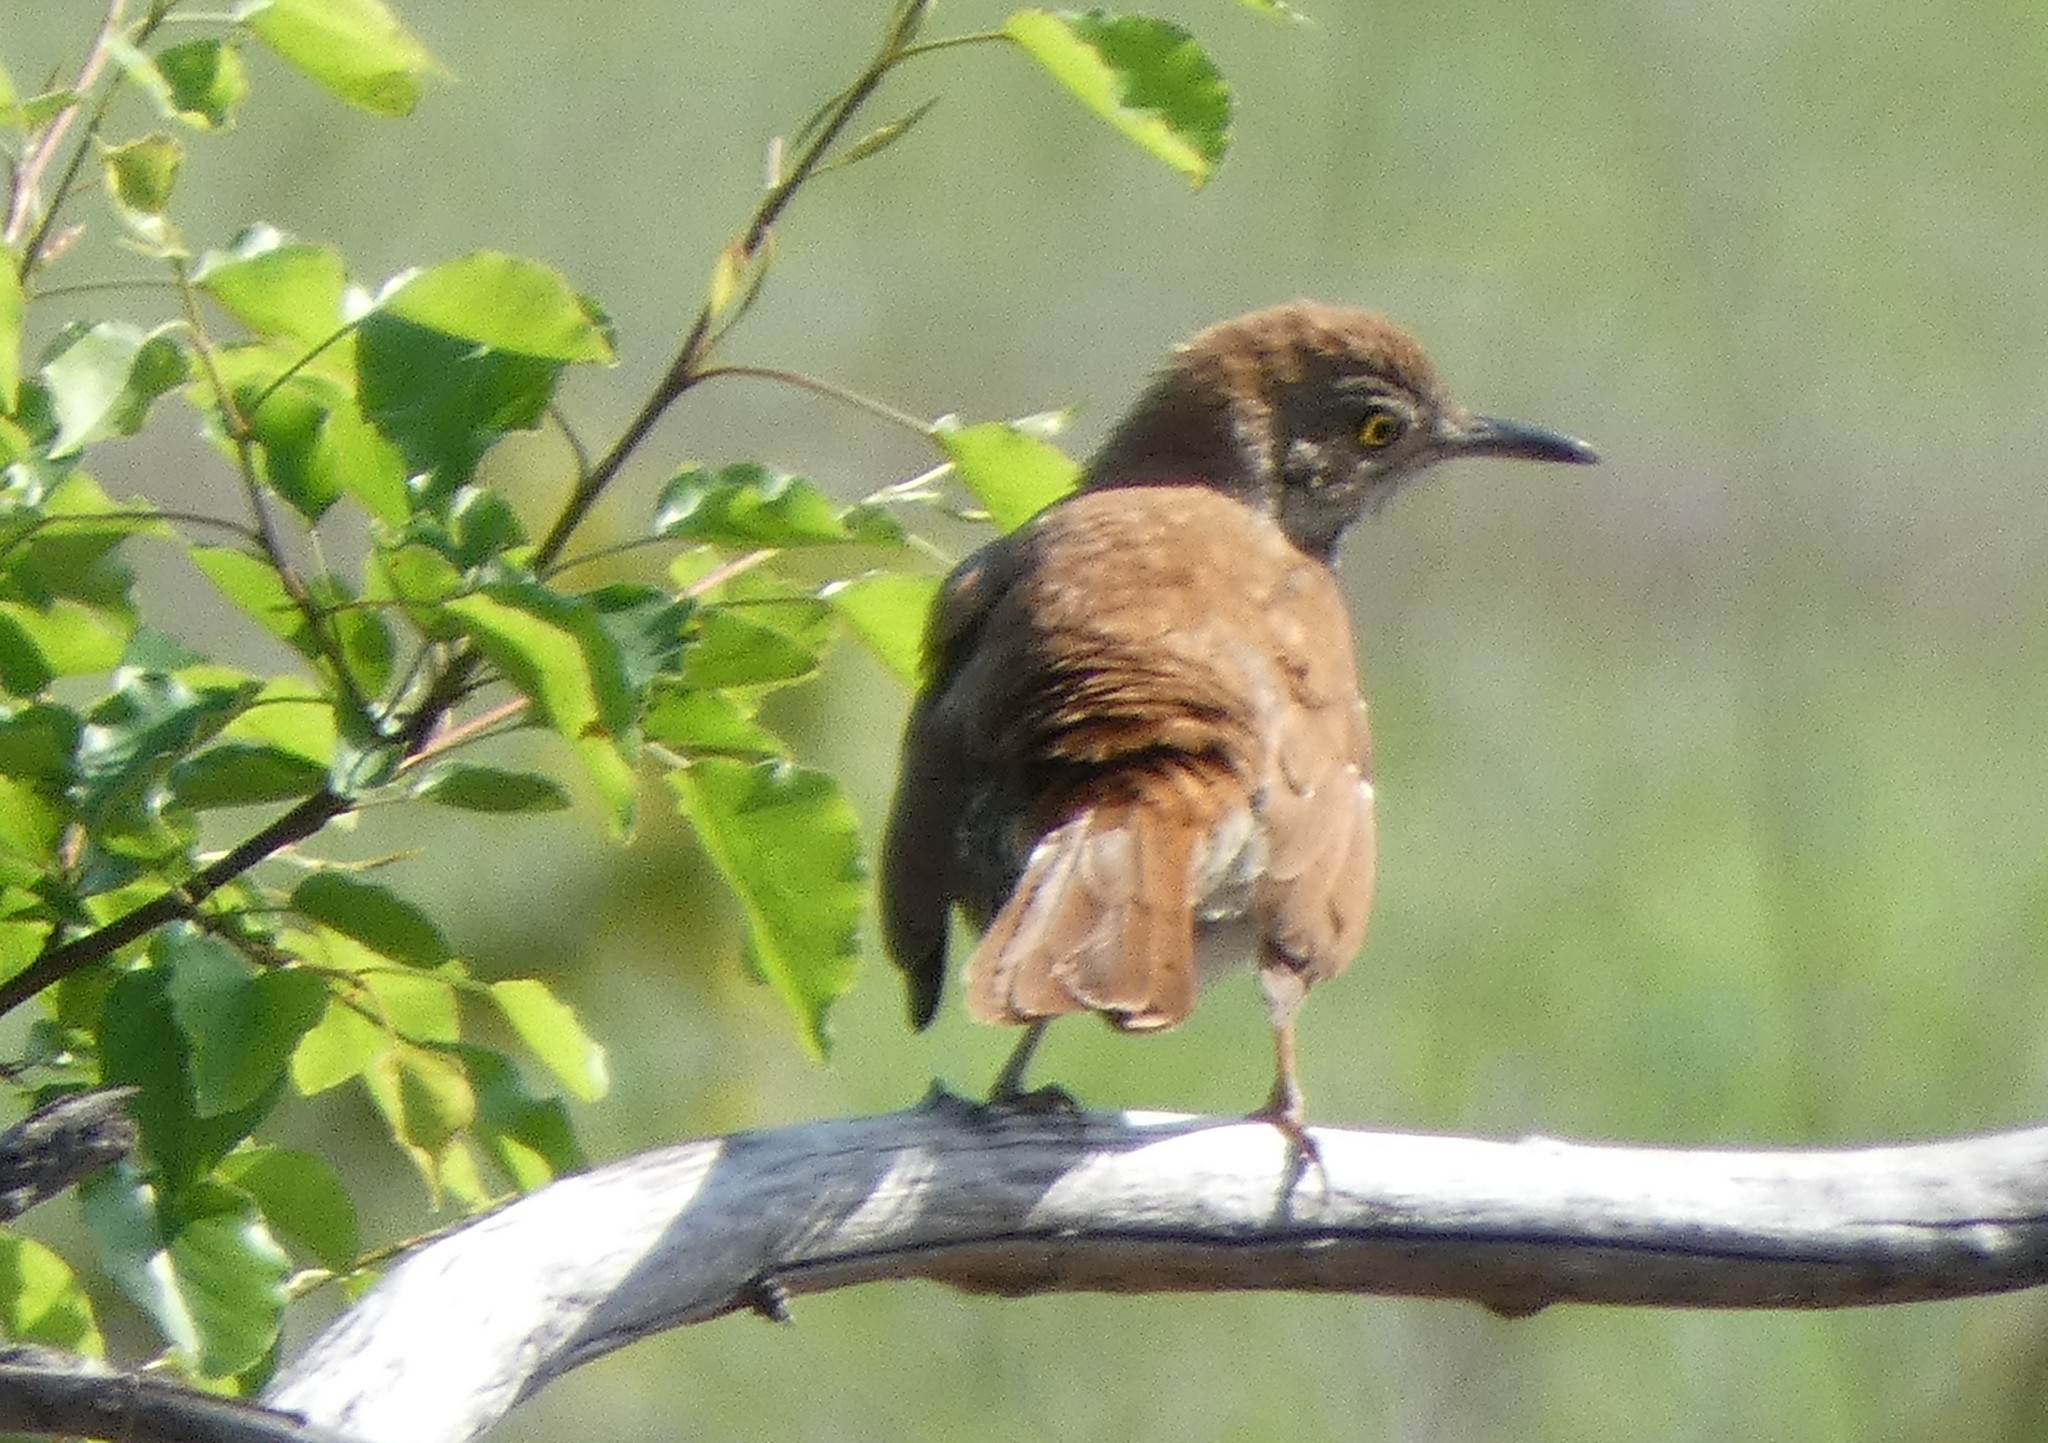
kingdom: Animalia
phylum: Chordata
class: Aves
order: Passeriformes
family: Mimidae
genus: Toxostoma
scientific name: Toxostoma rufum
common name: Brown thrasher
